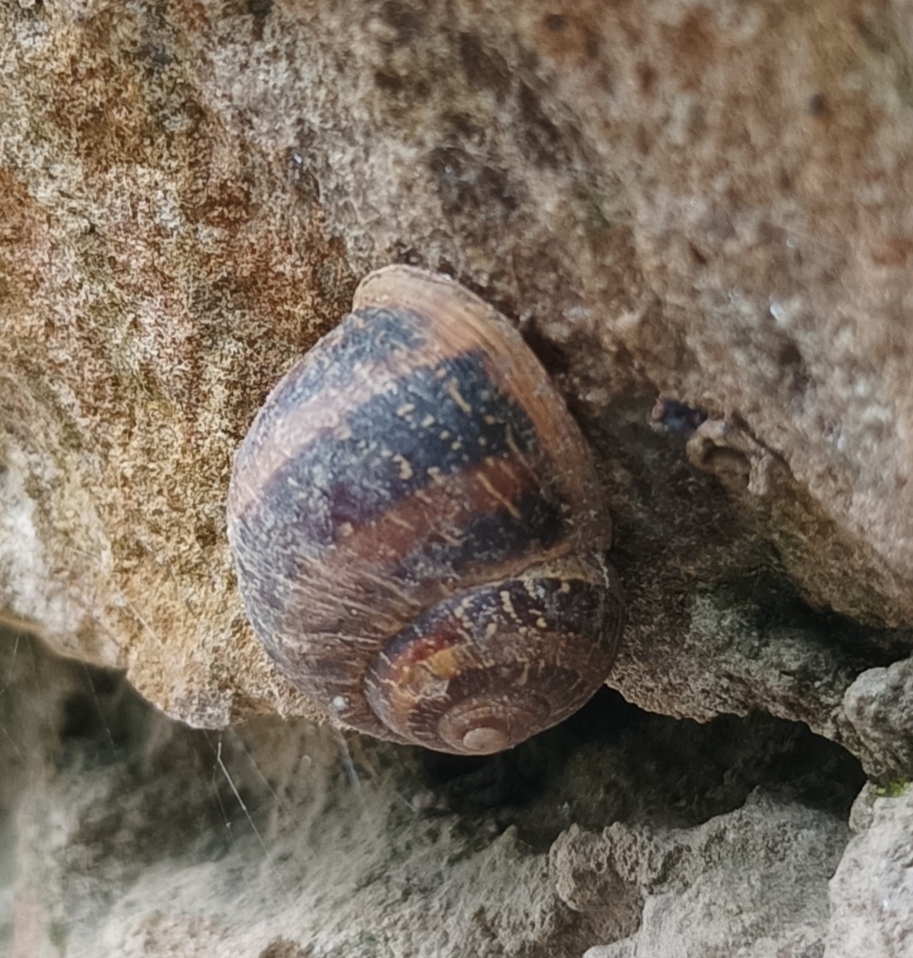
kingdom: Animalia
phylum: Mollusca
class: Gastropoda
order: Stylommatophora
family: Helicidae
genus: Cornu
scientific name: Cornu aspersum
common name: Brown garden snail
